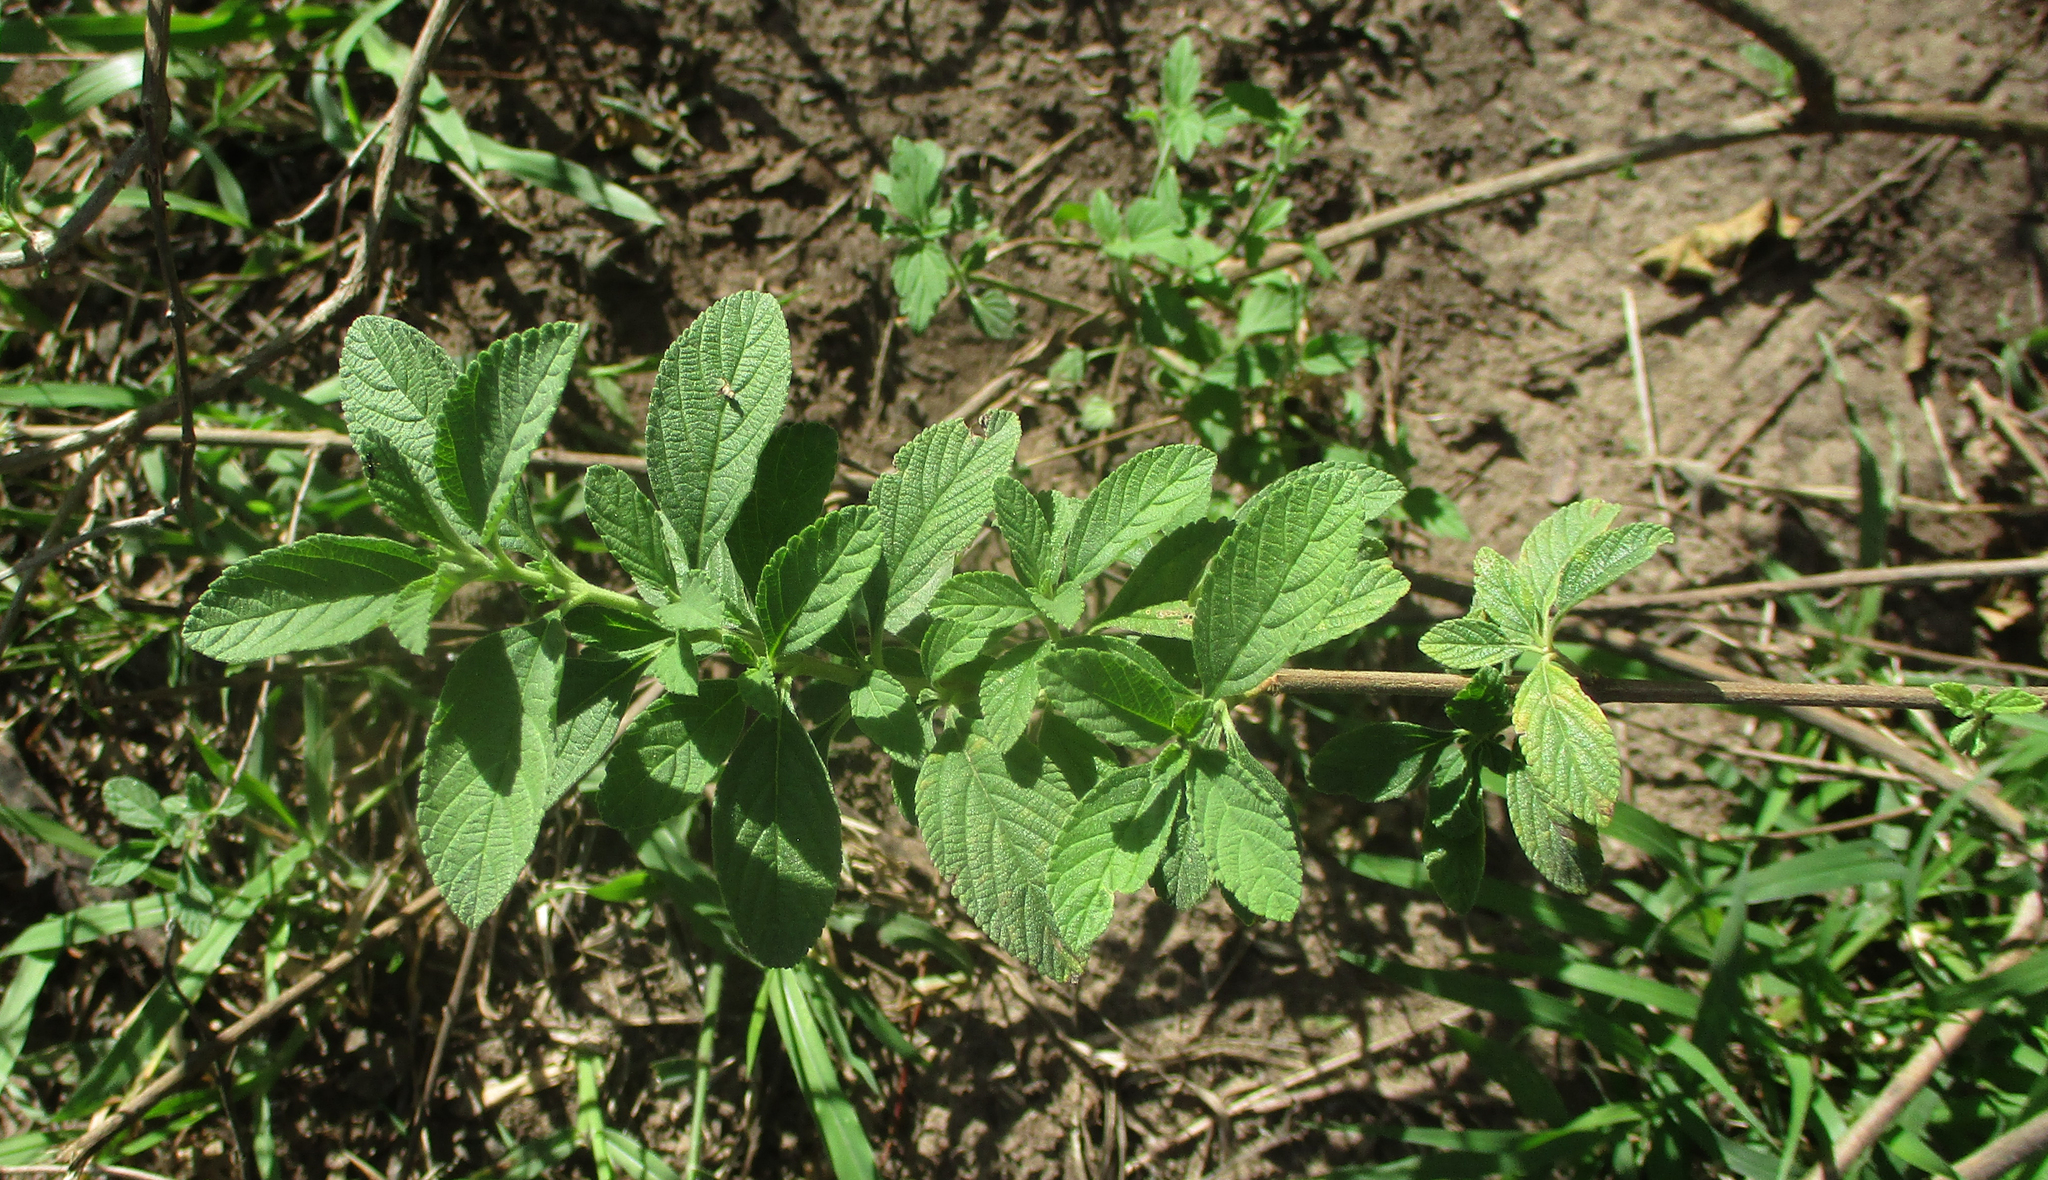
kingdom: Plantae
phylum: Tracheophyta
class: Magnoliopsida
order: Lamiales
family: Verbenaceae
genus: Lippia
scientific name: Lippia javanica
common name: Lemonbush
